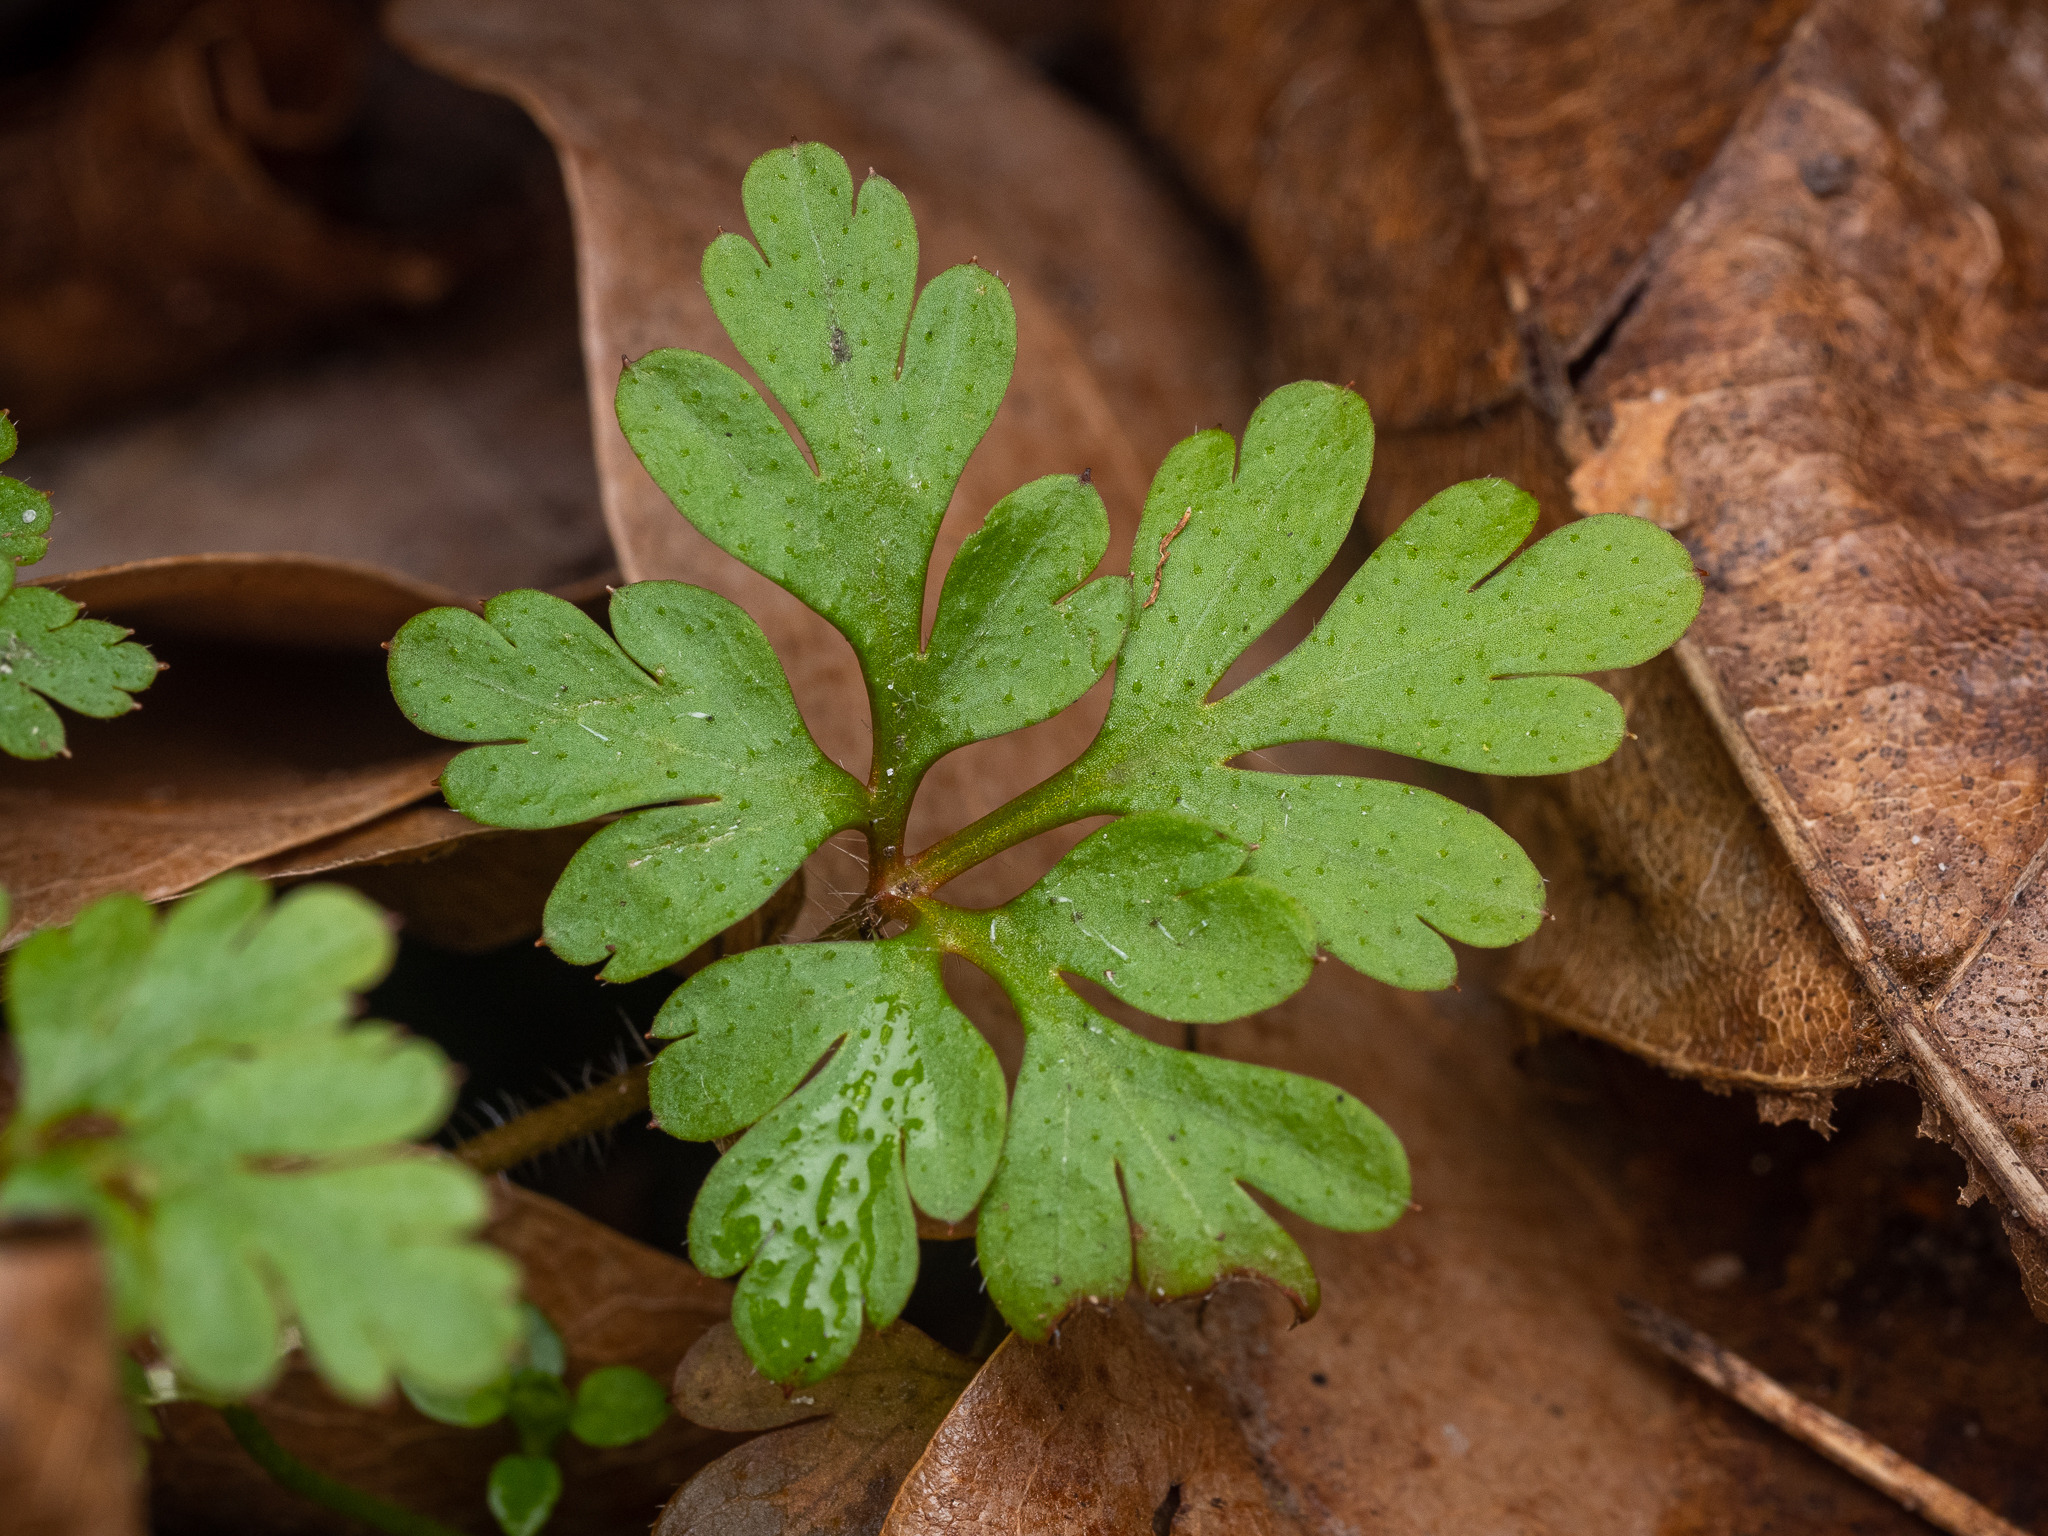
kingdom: Plantae
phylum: Tracheophyta
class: Magnoliopsida
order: Geraniales
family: Geraniaceae
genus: Geranium
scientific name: Geranium robertianum
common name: Herb-robert
